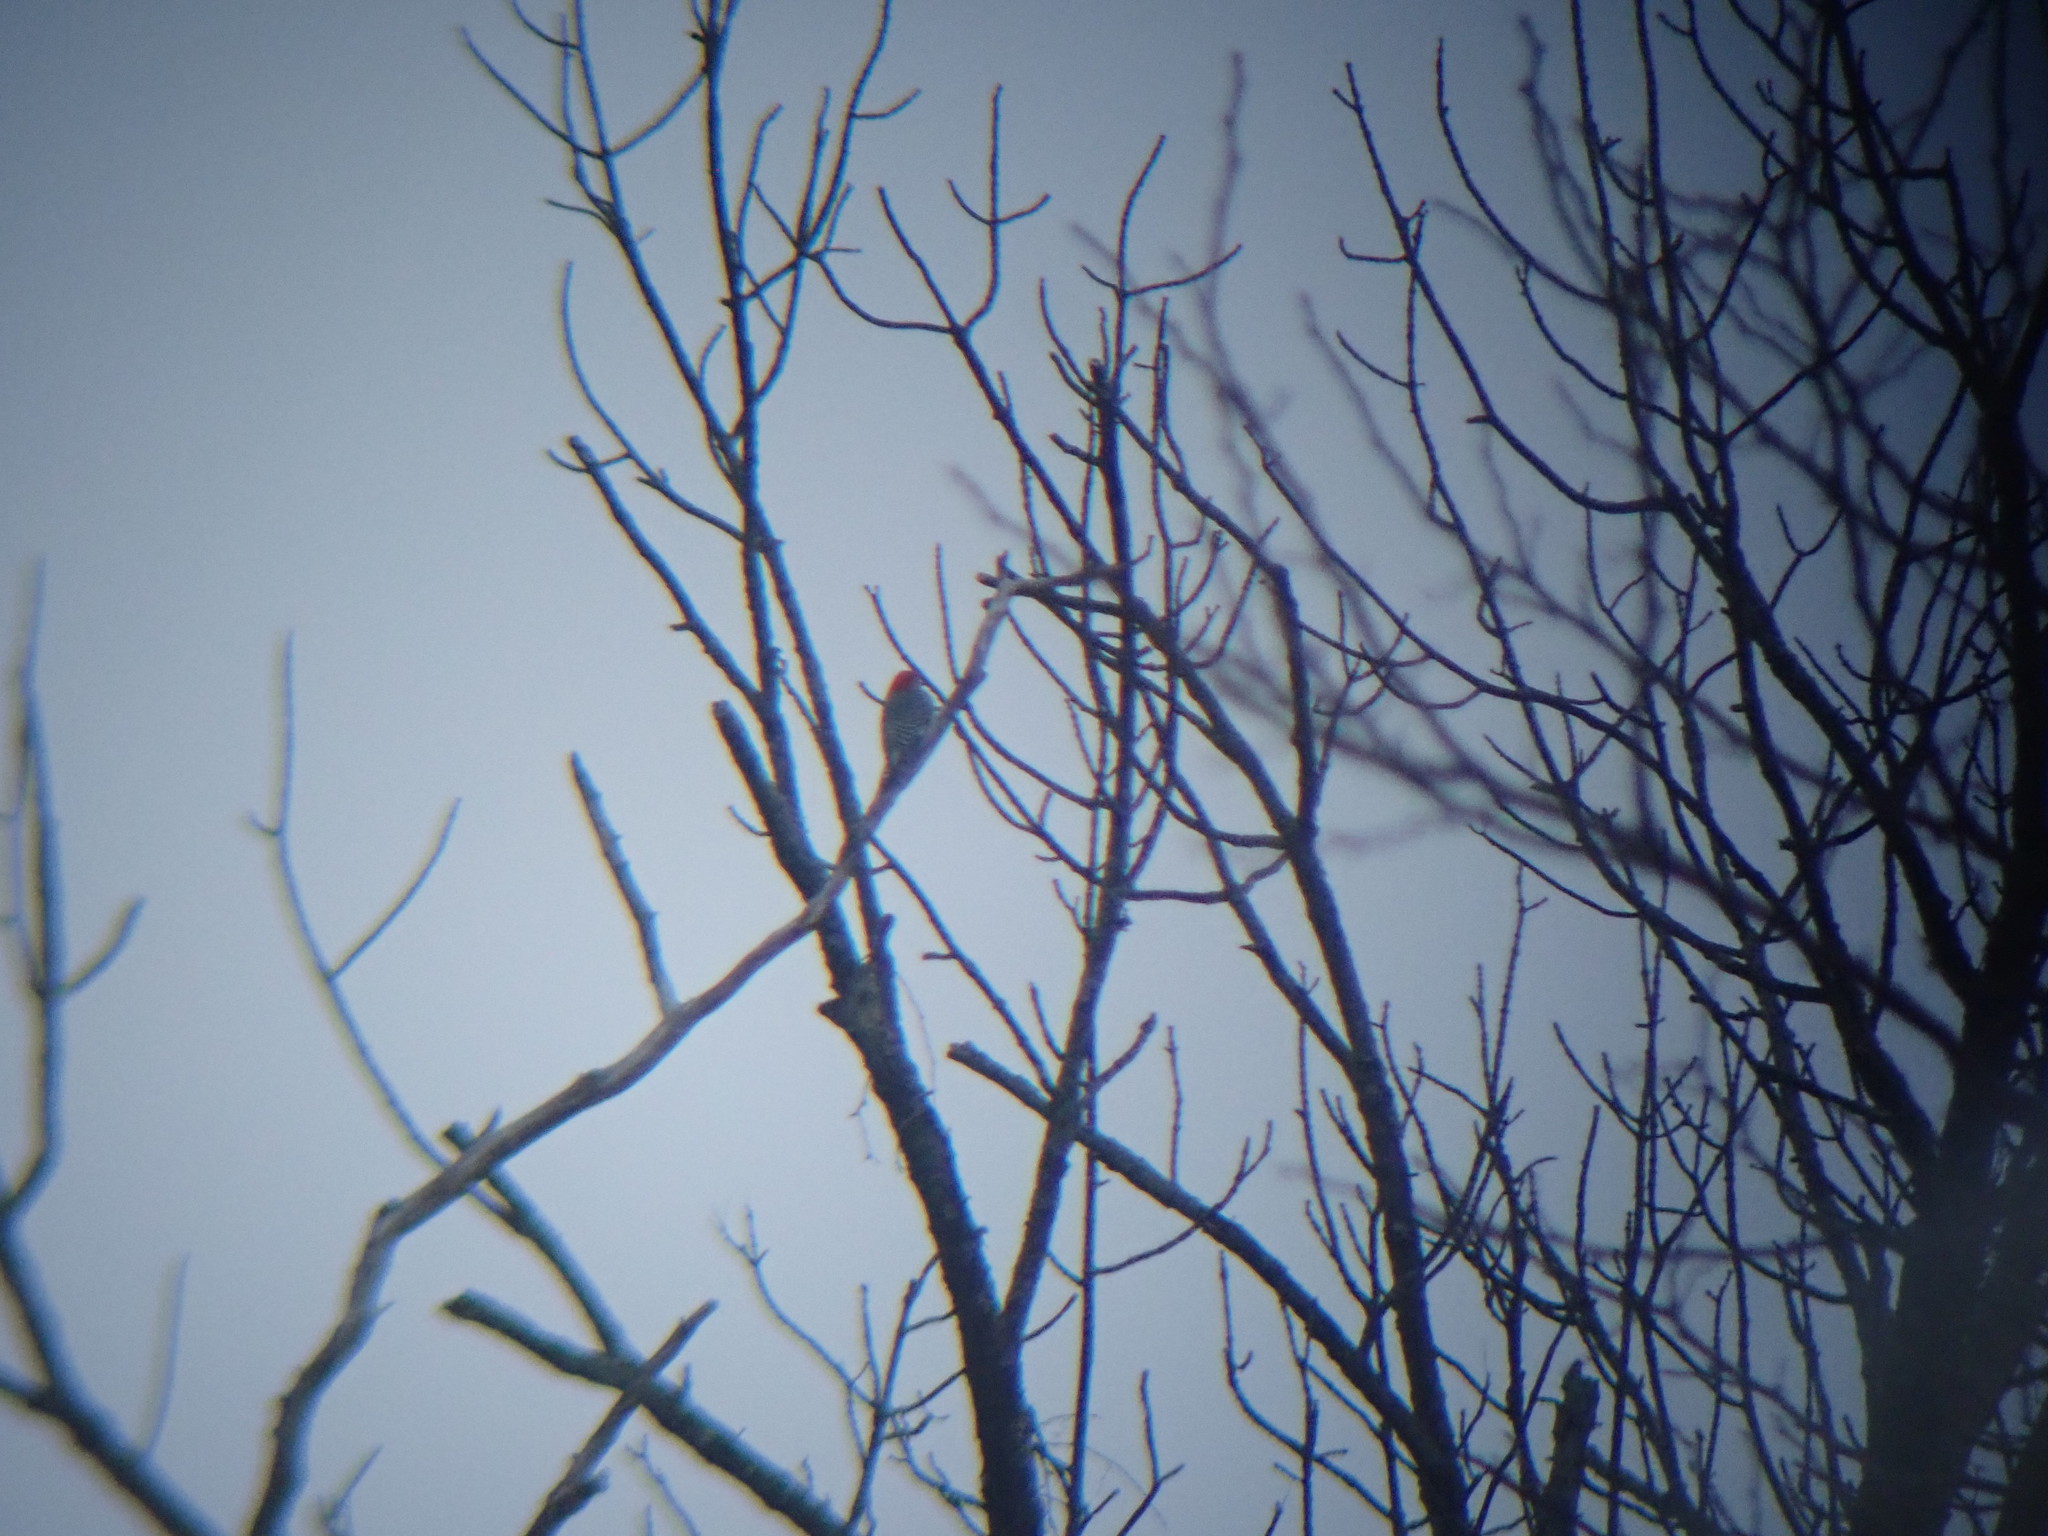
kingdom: Animalia
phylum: Chordata
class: Aves
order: Piciformes
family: Picidae
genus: Melanerpes
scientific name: Melanerpes carolinus
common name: Red-bellied woodpecker
